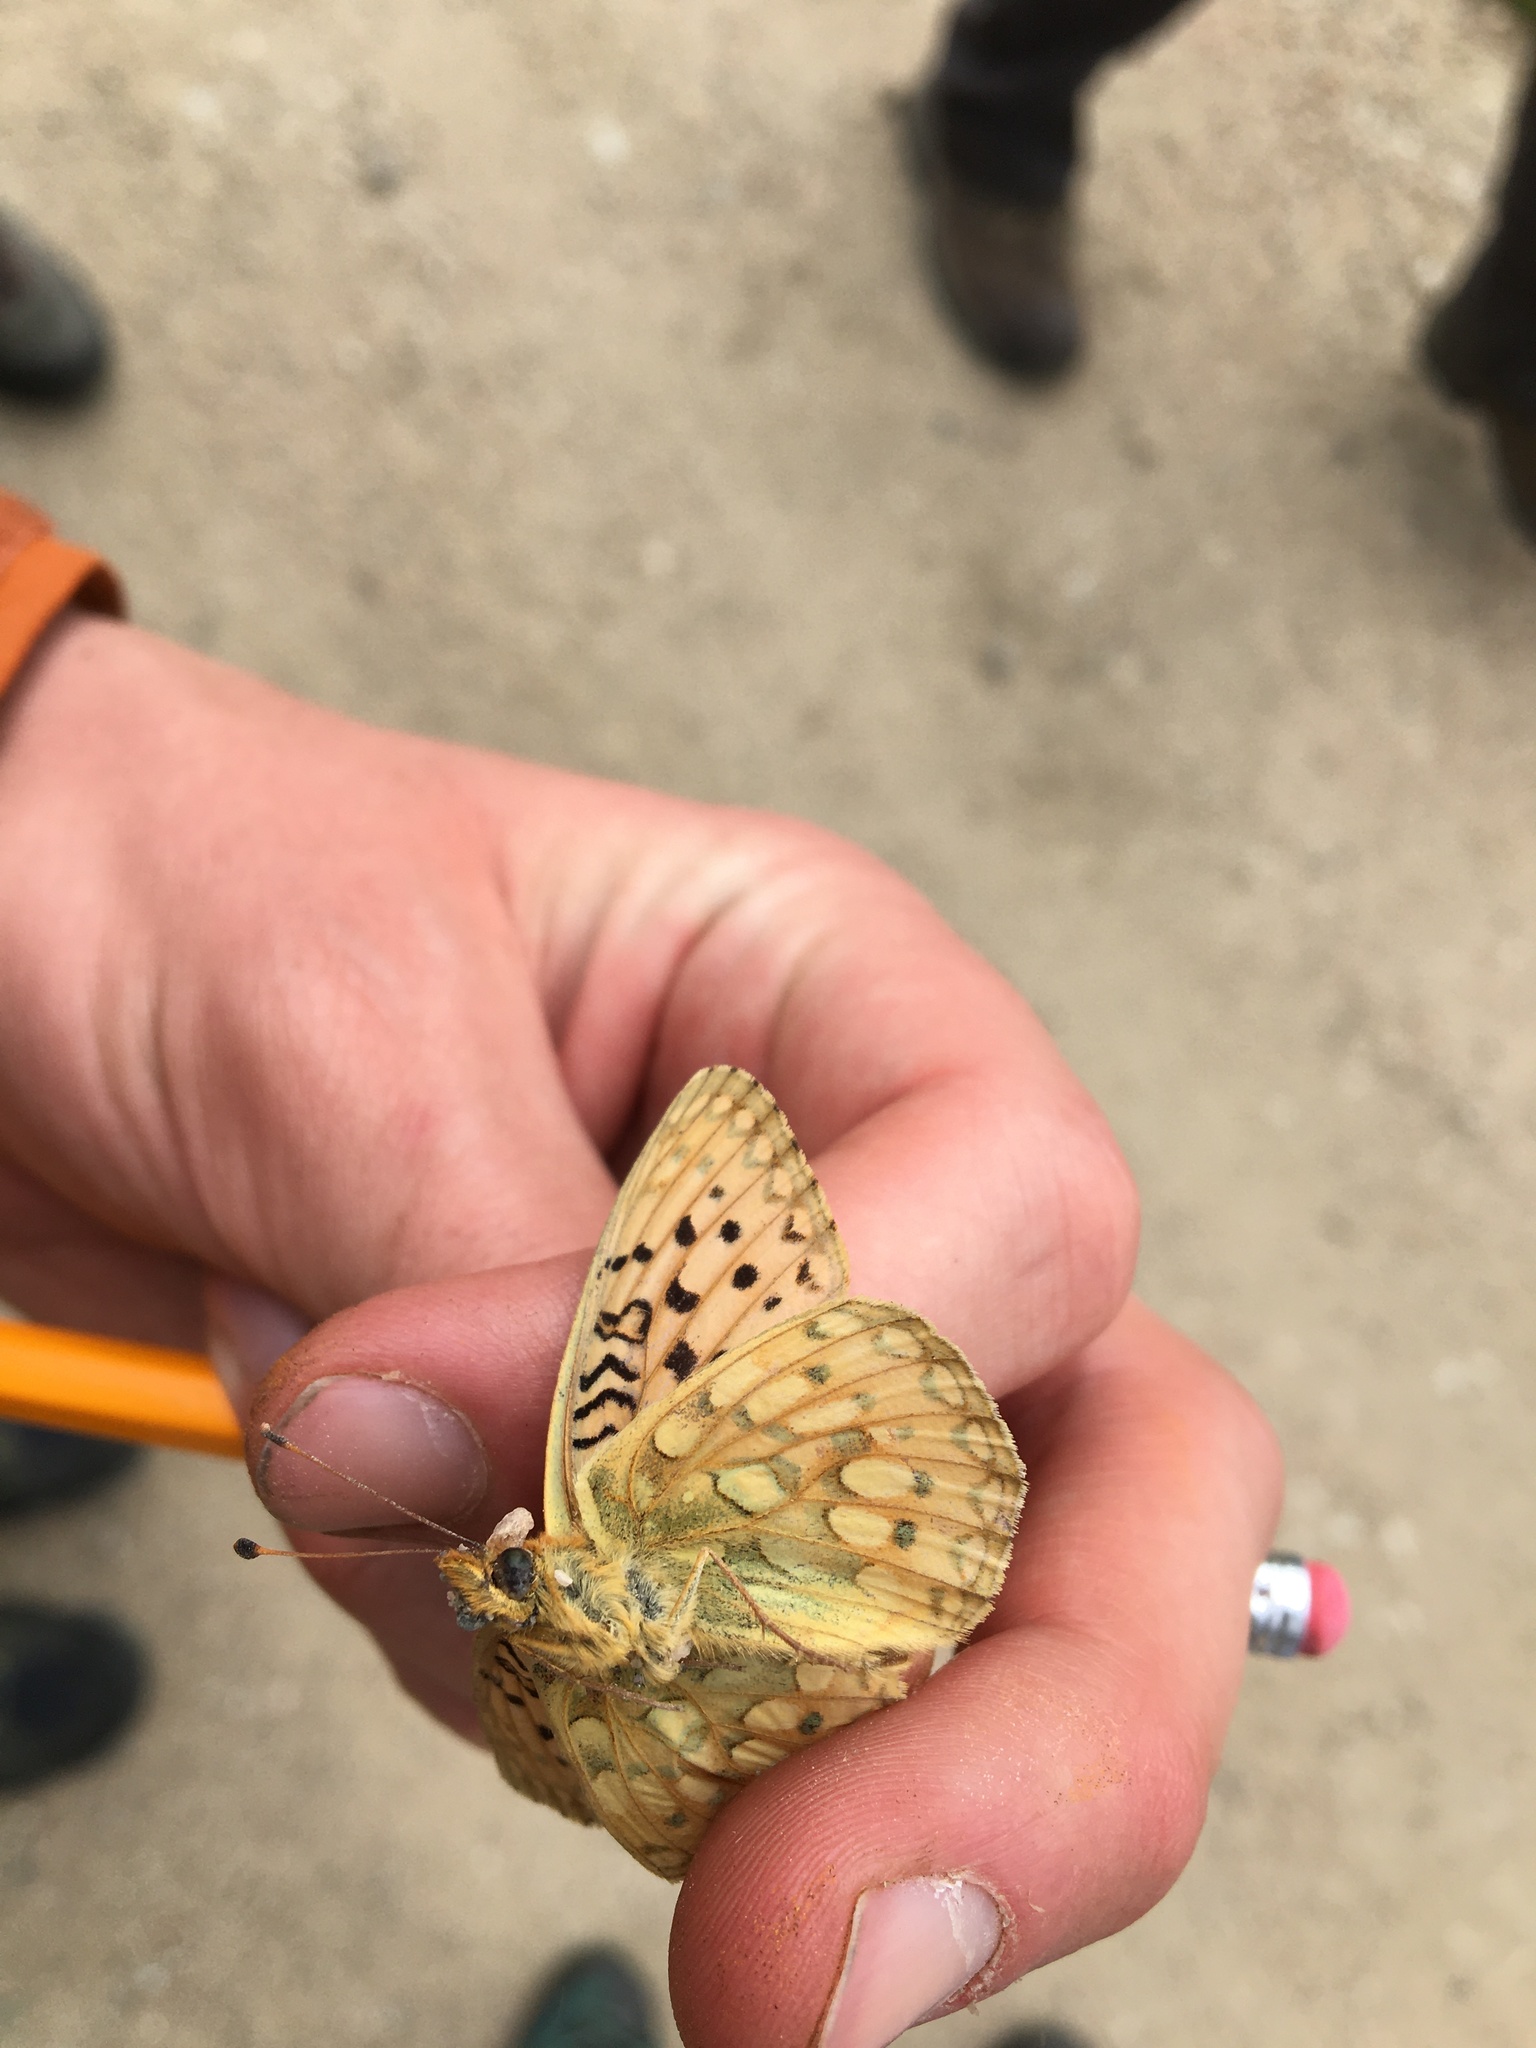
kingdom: Animalia
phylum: Arthropoda
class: Insecta
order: Lepidoptera
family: Nymphalidae
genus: Speyeria
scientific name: Speyeria mormonia
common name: Mormon fritillary
